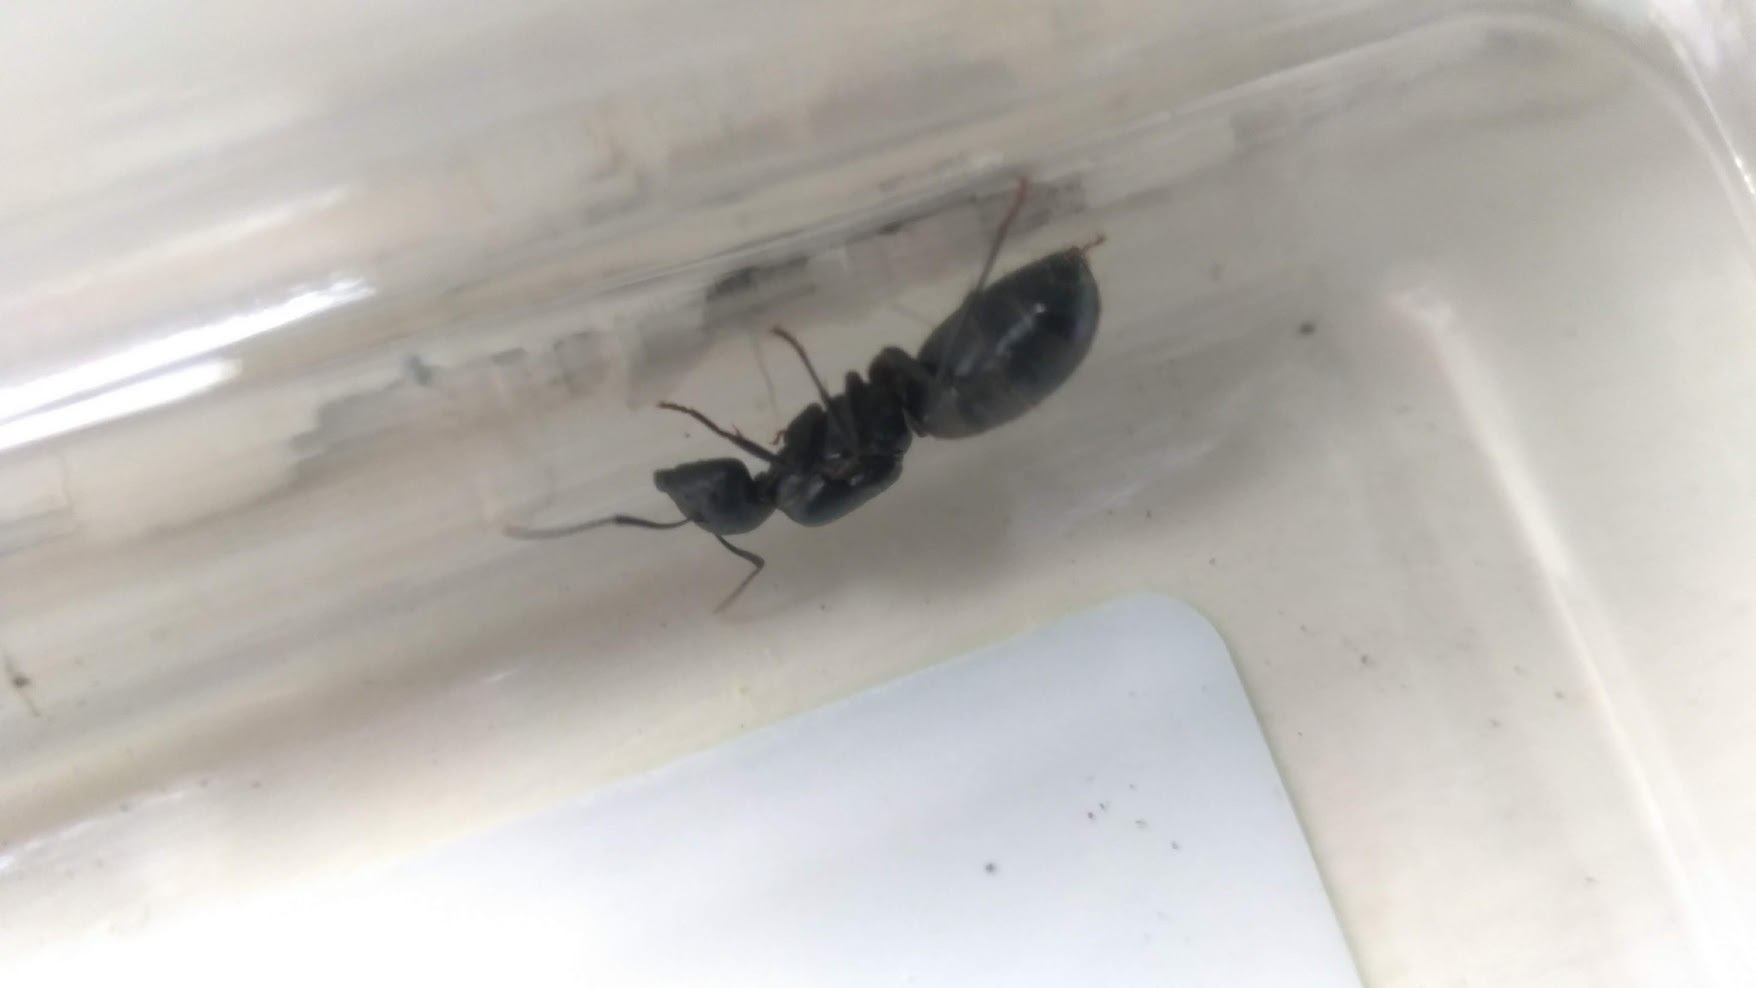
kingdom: Animalia
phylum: Arthropoda
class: Insecta
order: Hymenoptera
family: Formicidae
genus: Camponotus
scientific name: Camponotus pennsylvanicus
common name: Black carpenter ant
